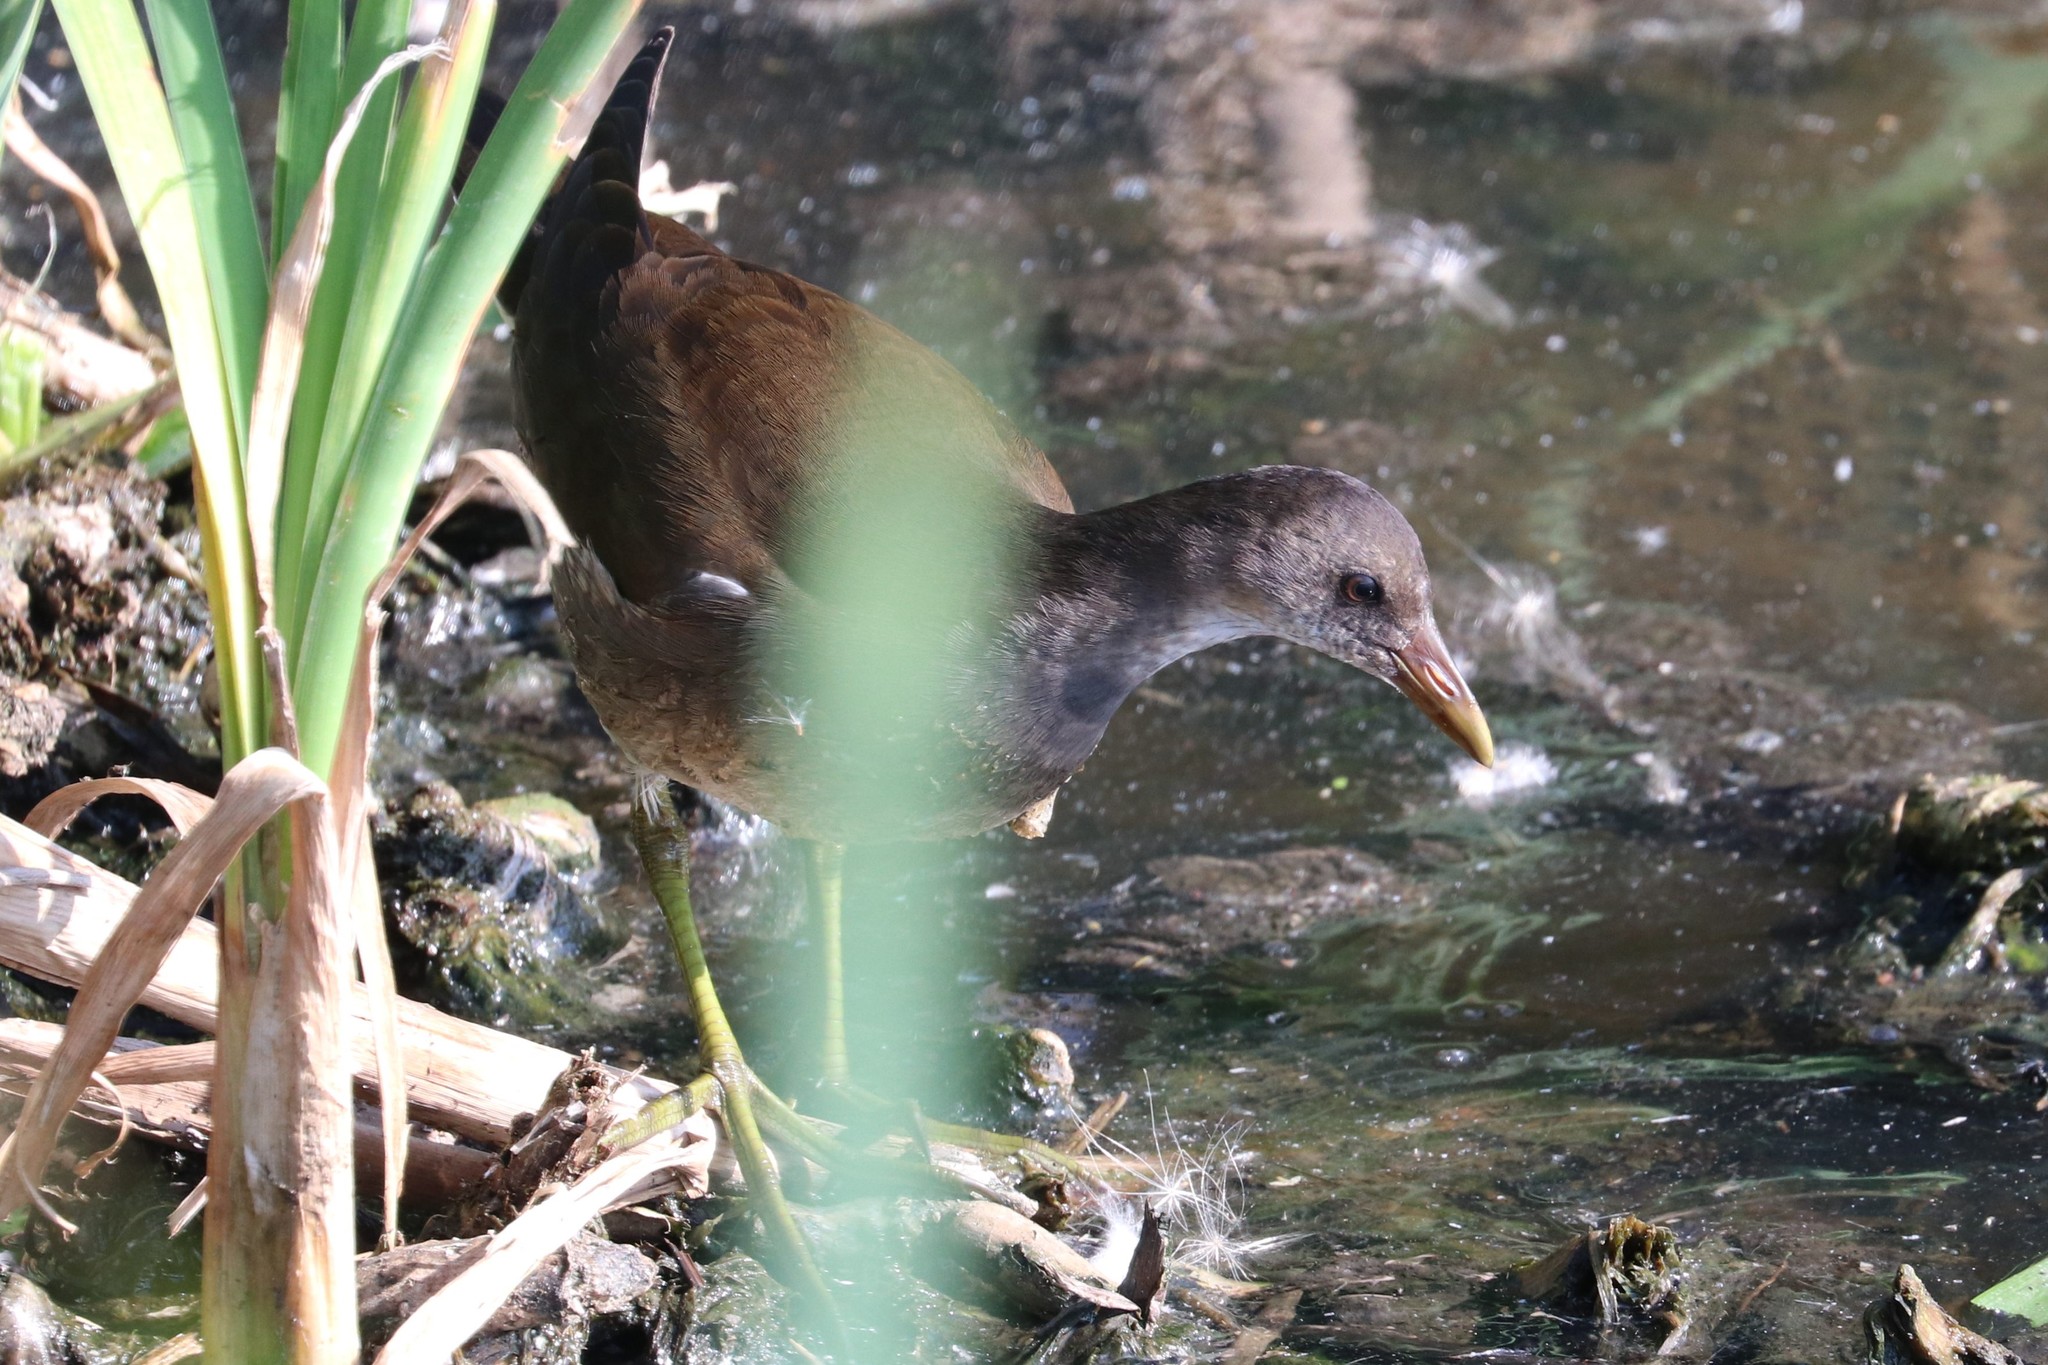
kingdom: Animalia
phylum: Chordata
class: Aves
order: Gruiformes
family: Rallidae
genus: Gallinula
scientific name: Gallinula chloropus
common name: Common moorhen
